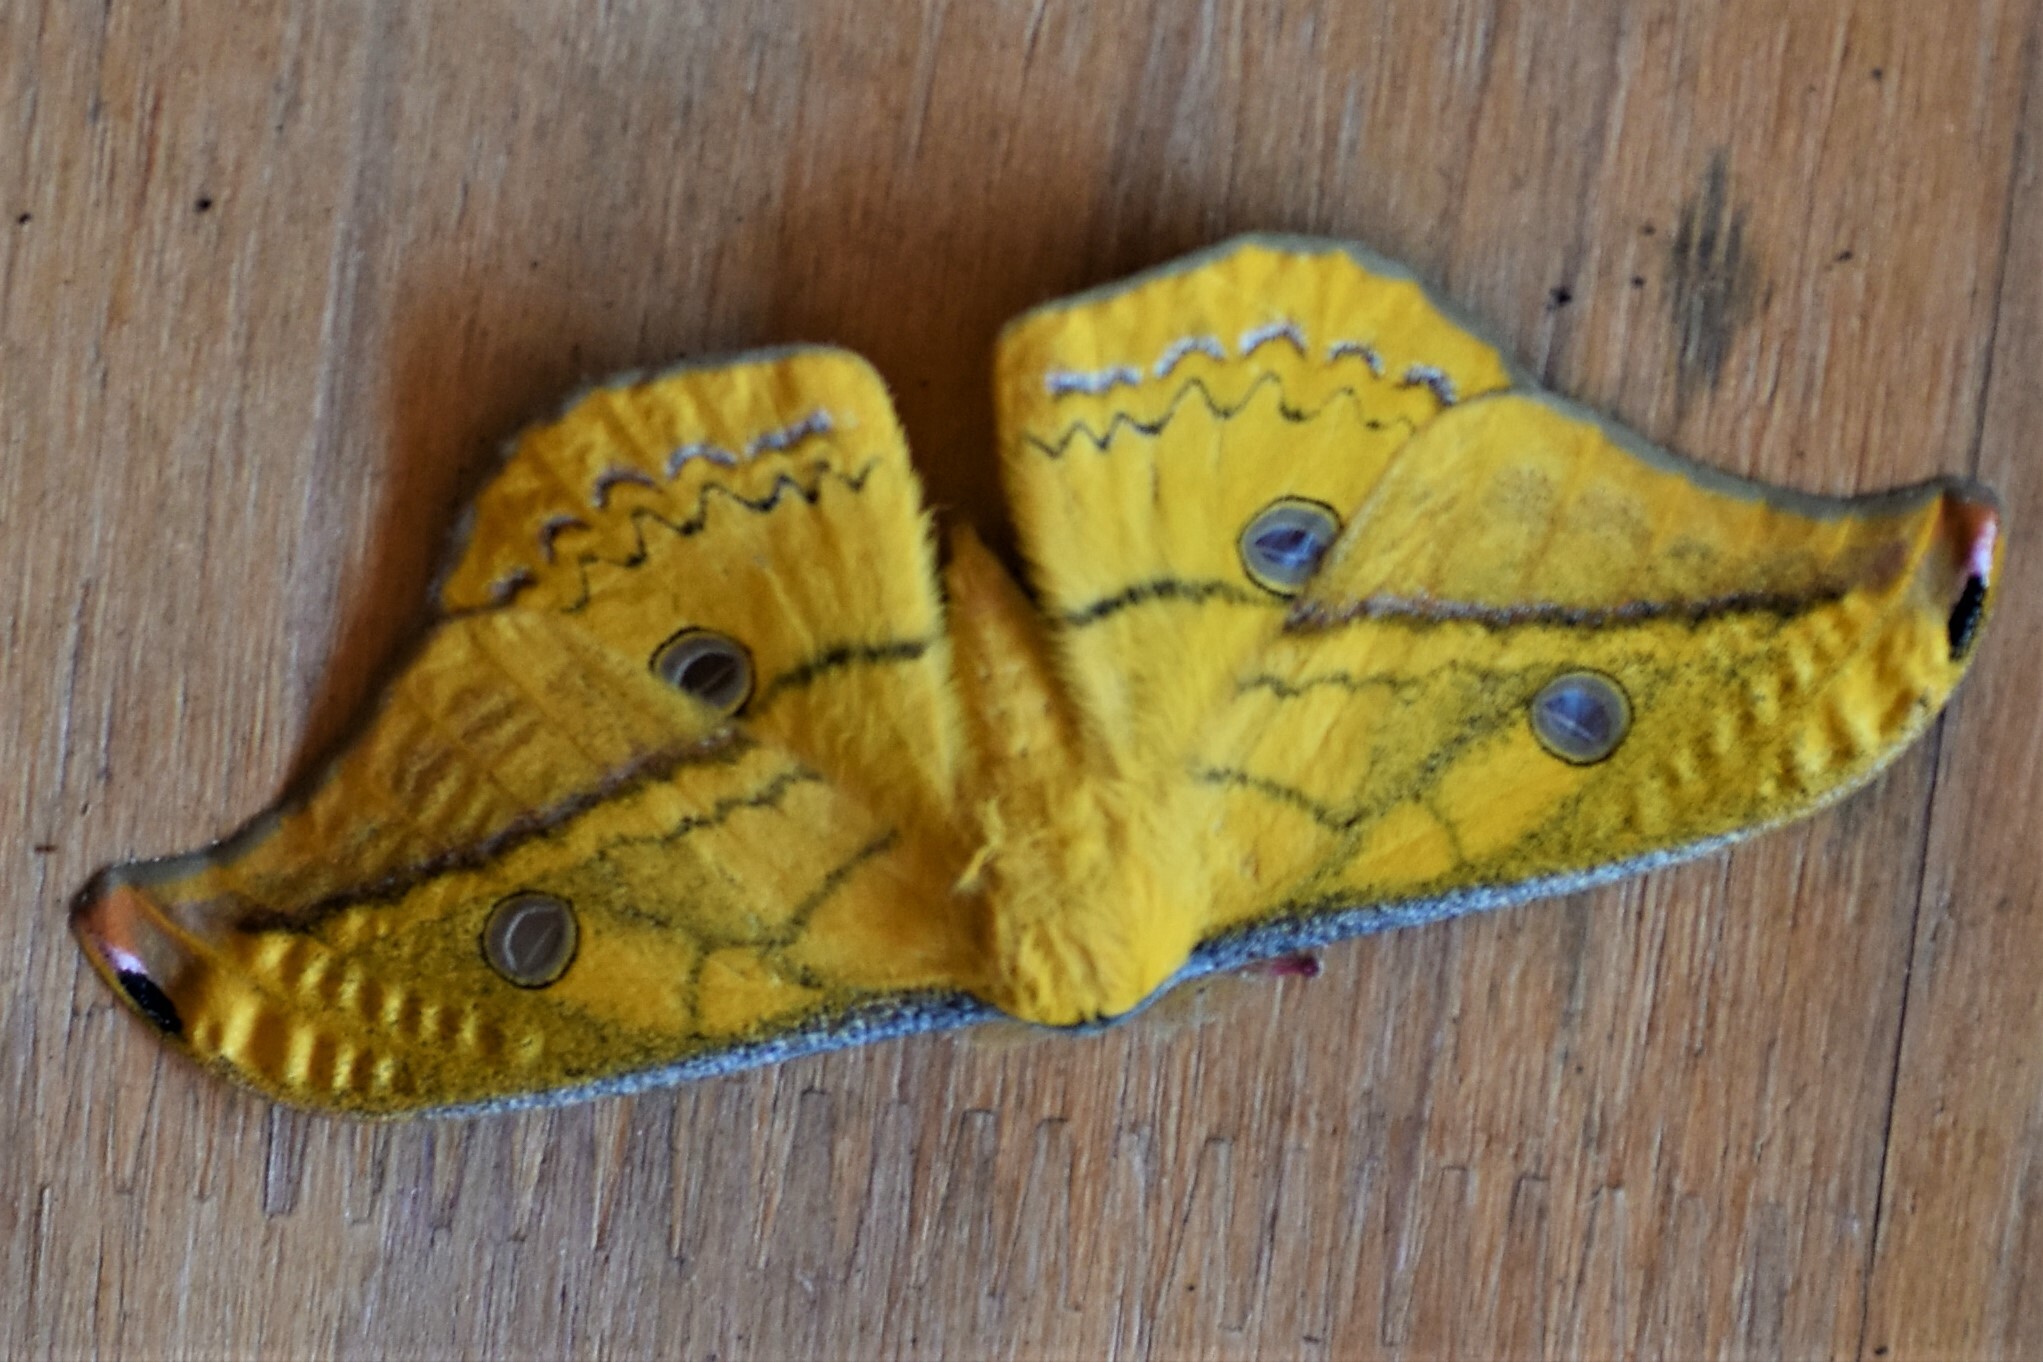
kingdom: Animalia
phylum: Arthropoda
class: Insecta
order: Lepidoptera
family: Saturniidae
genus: Copaxa
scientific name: Copaxa flavina
